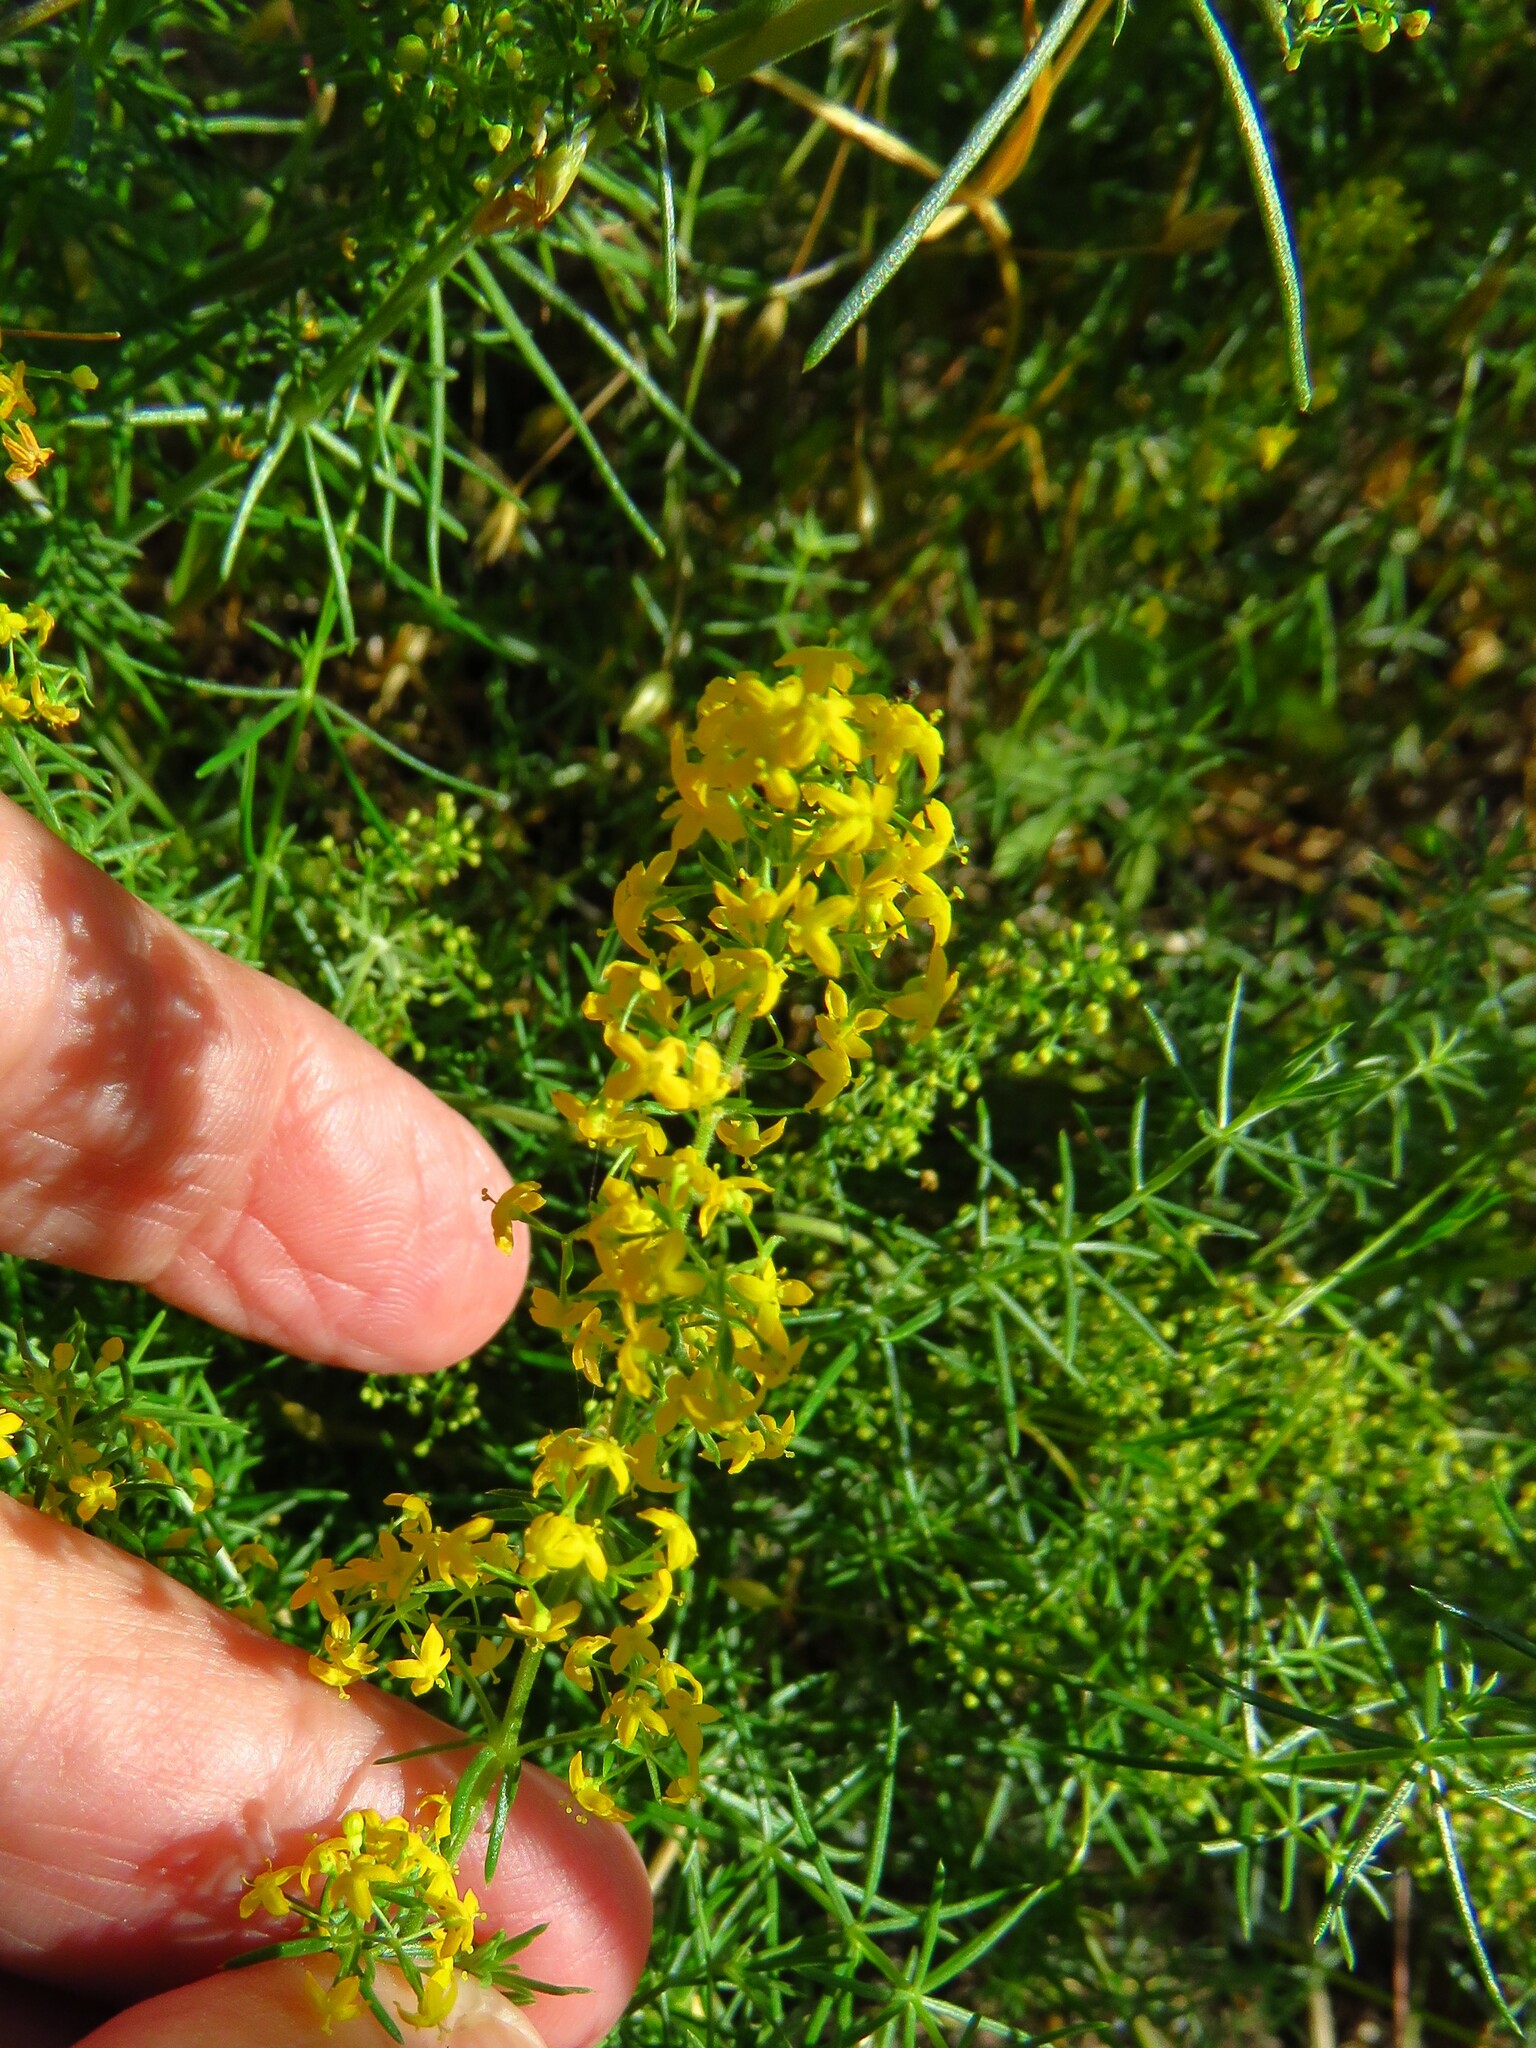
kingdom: Plantae
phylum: Tracheophyta
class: Magnoliopsida
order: Gentianales
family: Rubiaceae
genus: Galium
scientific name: Galium verum
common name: Lady's bedstraw
